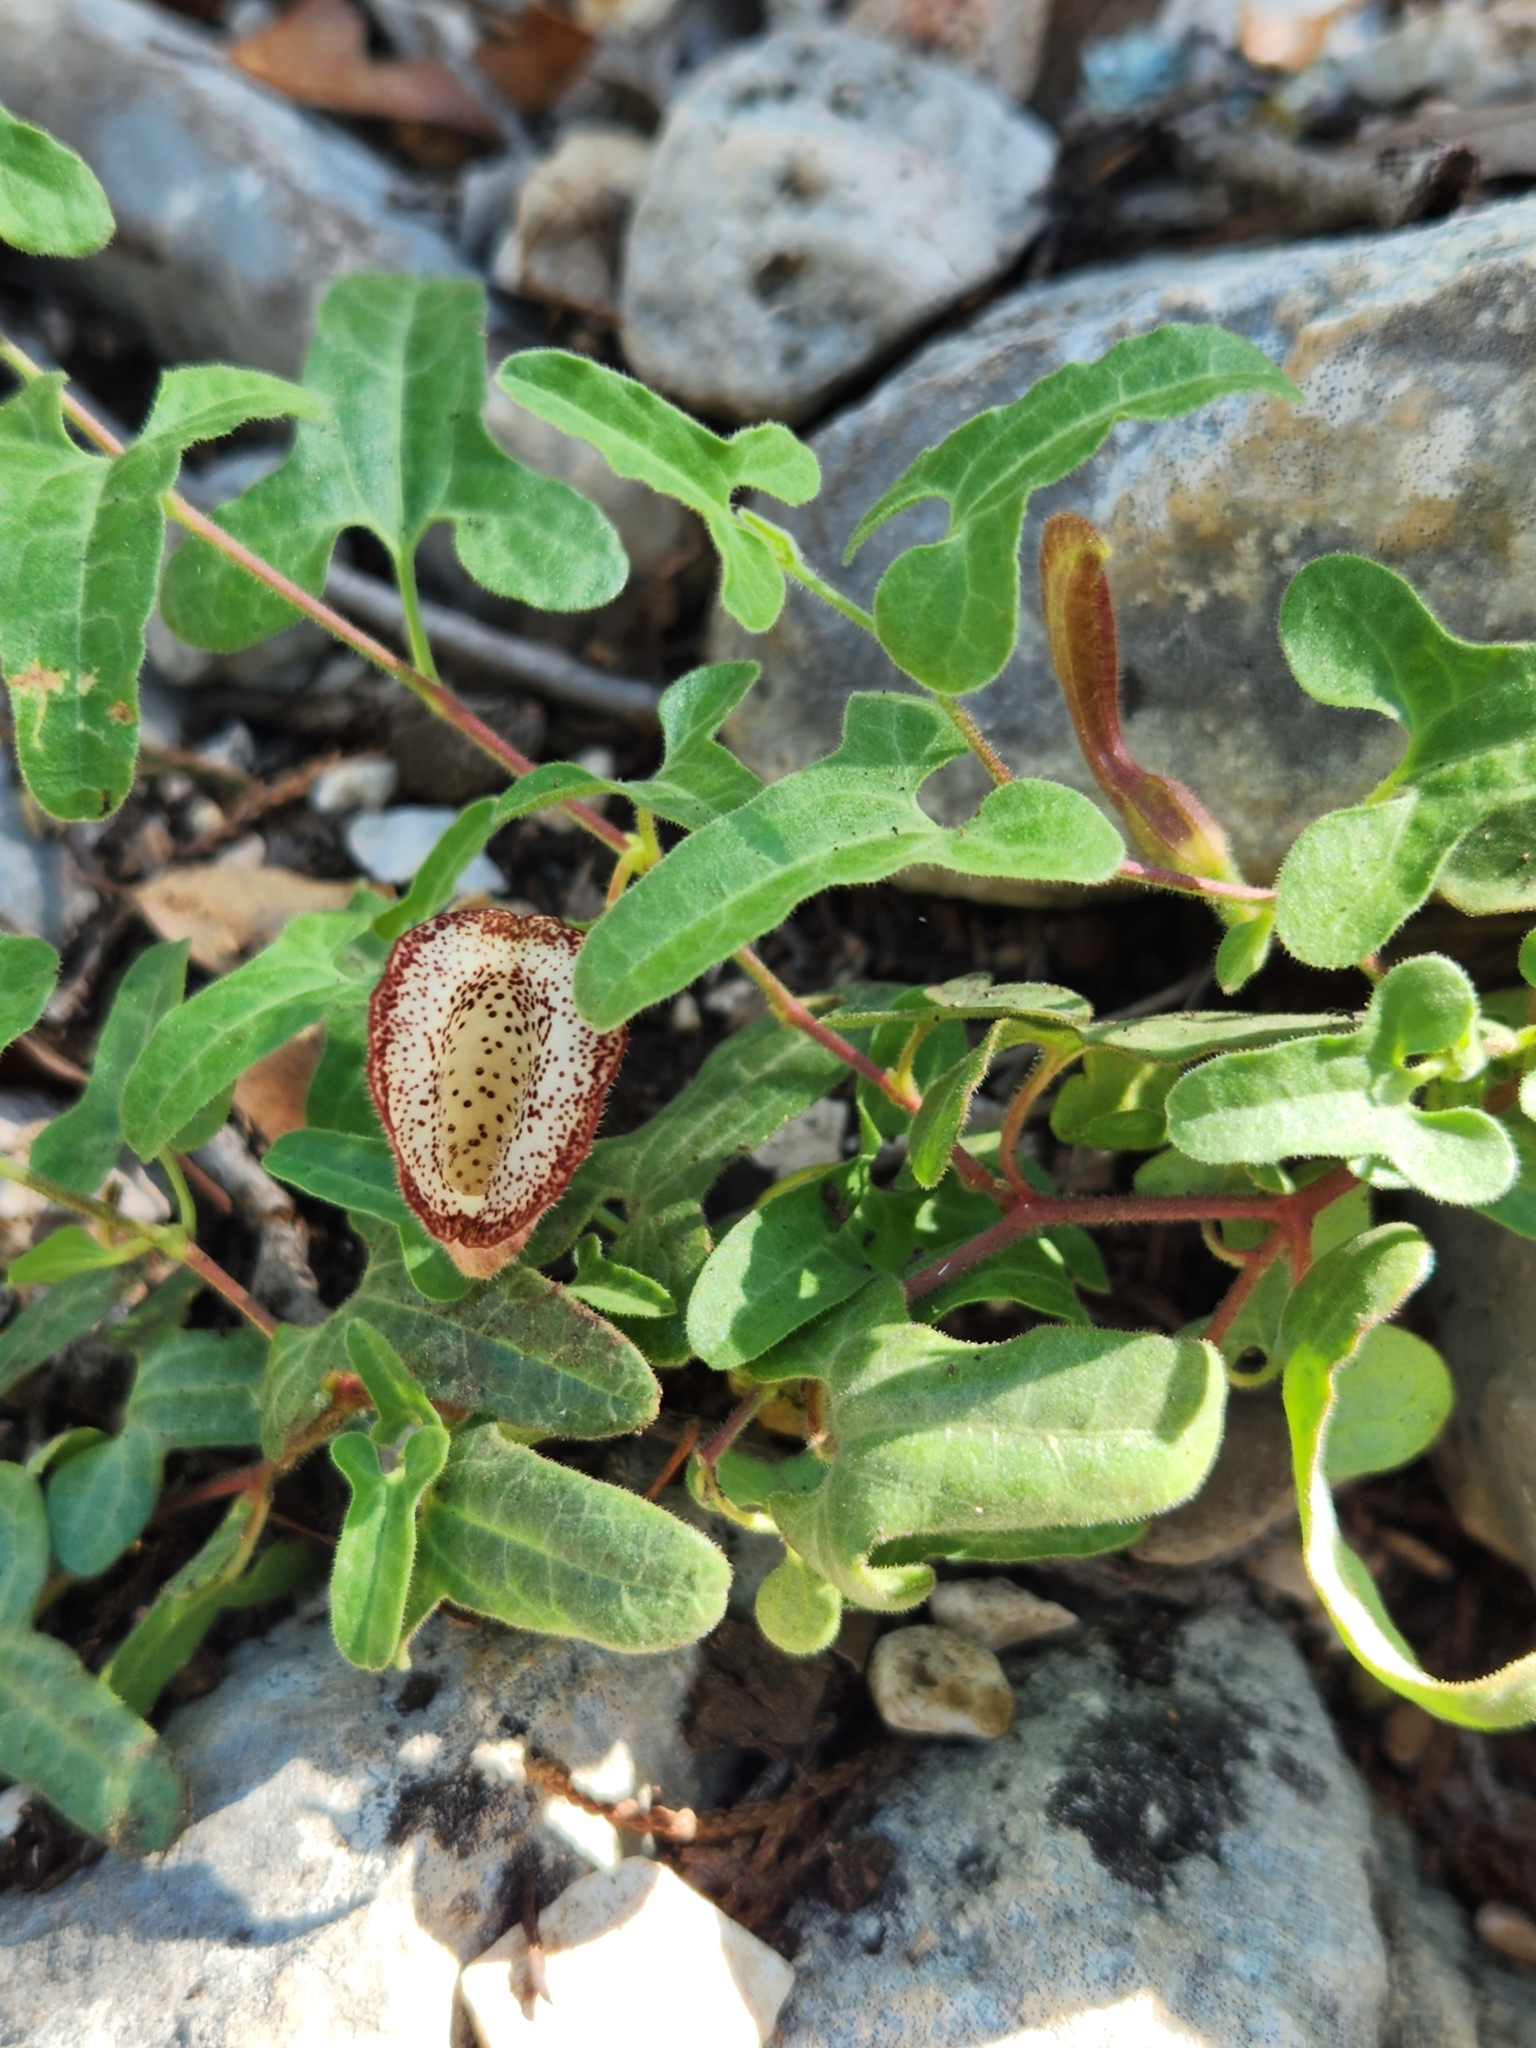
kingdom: Plantae
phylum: Tracheophyta
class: Magnoliopsida
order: Piperales
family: Aristolochiaceae
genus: Aristolochia
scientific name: Aristolochia coryi
